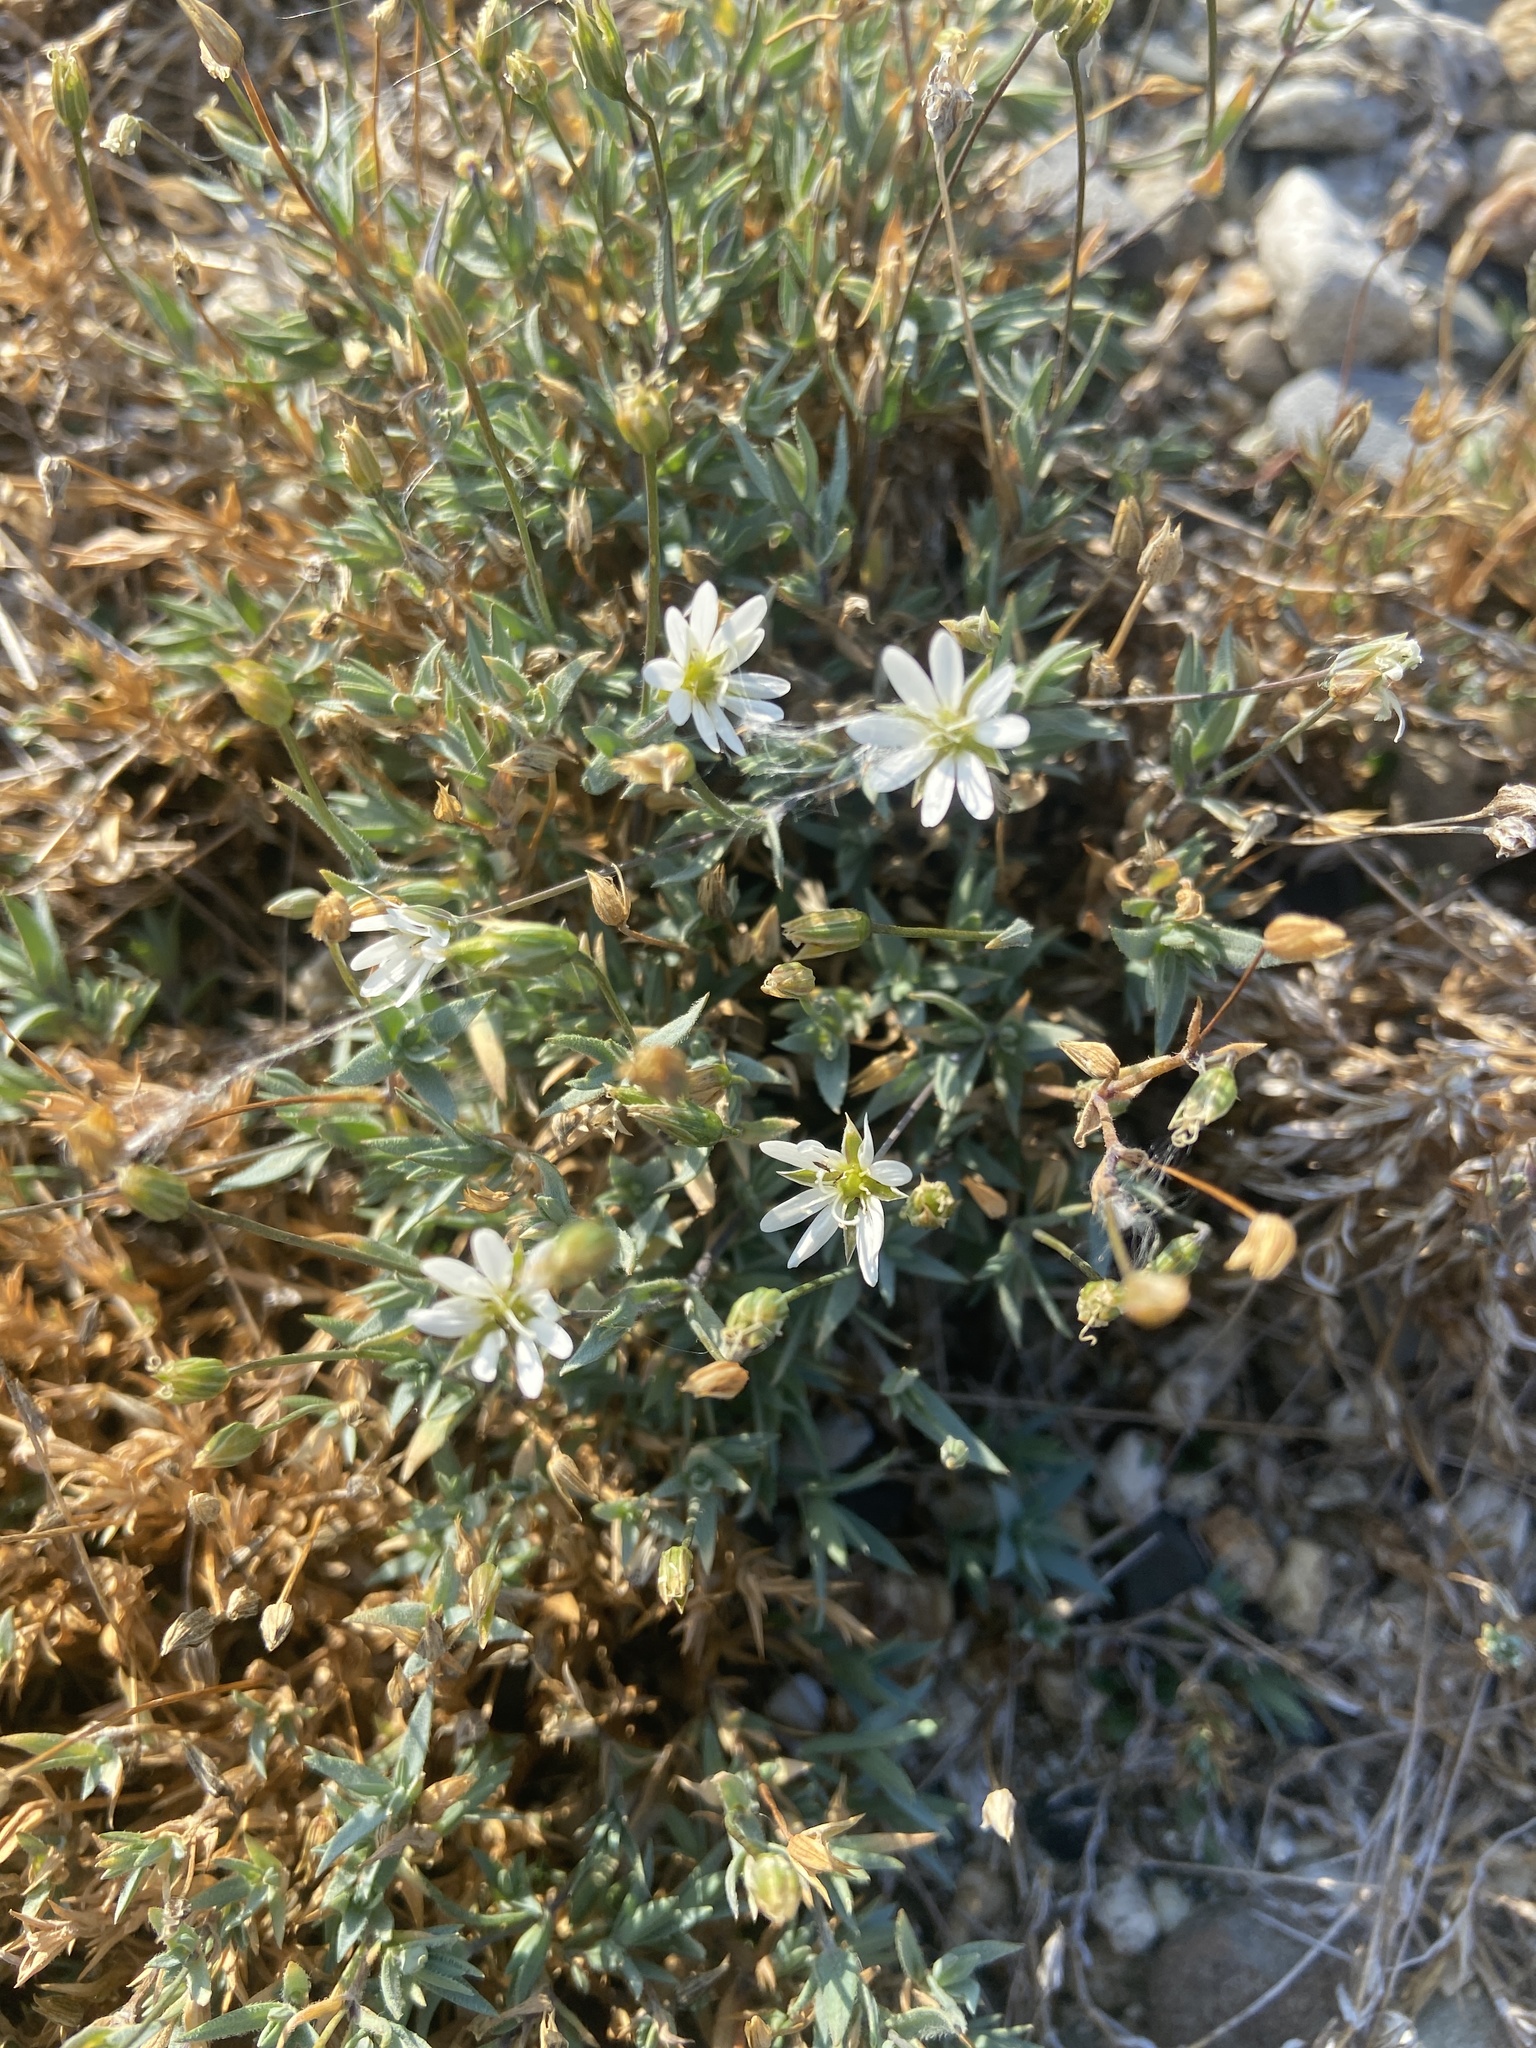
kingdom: Plantae
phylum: Tracheophyta
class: Magnoliopsida
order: Caryophyllales
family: Caryophyllaceae
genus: Stellaria
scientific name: Stellaria fischeriana
